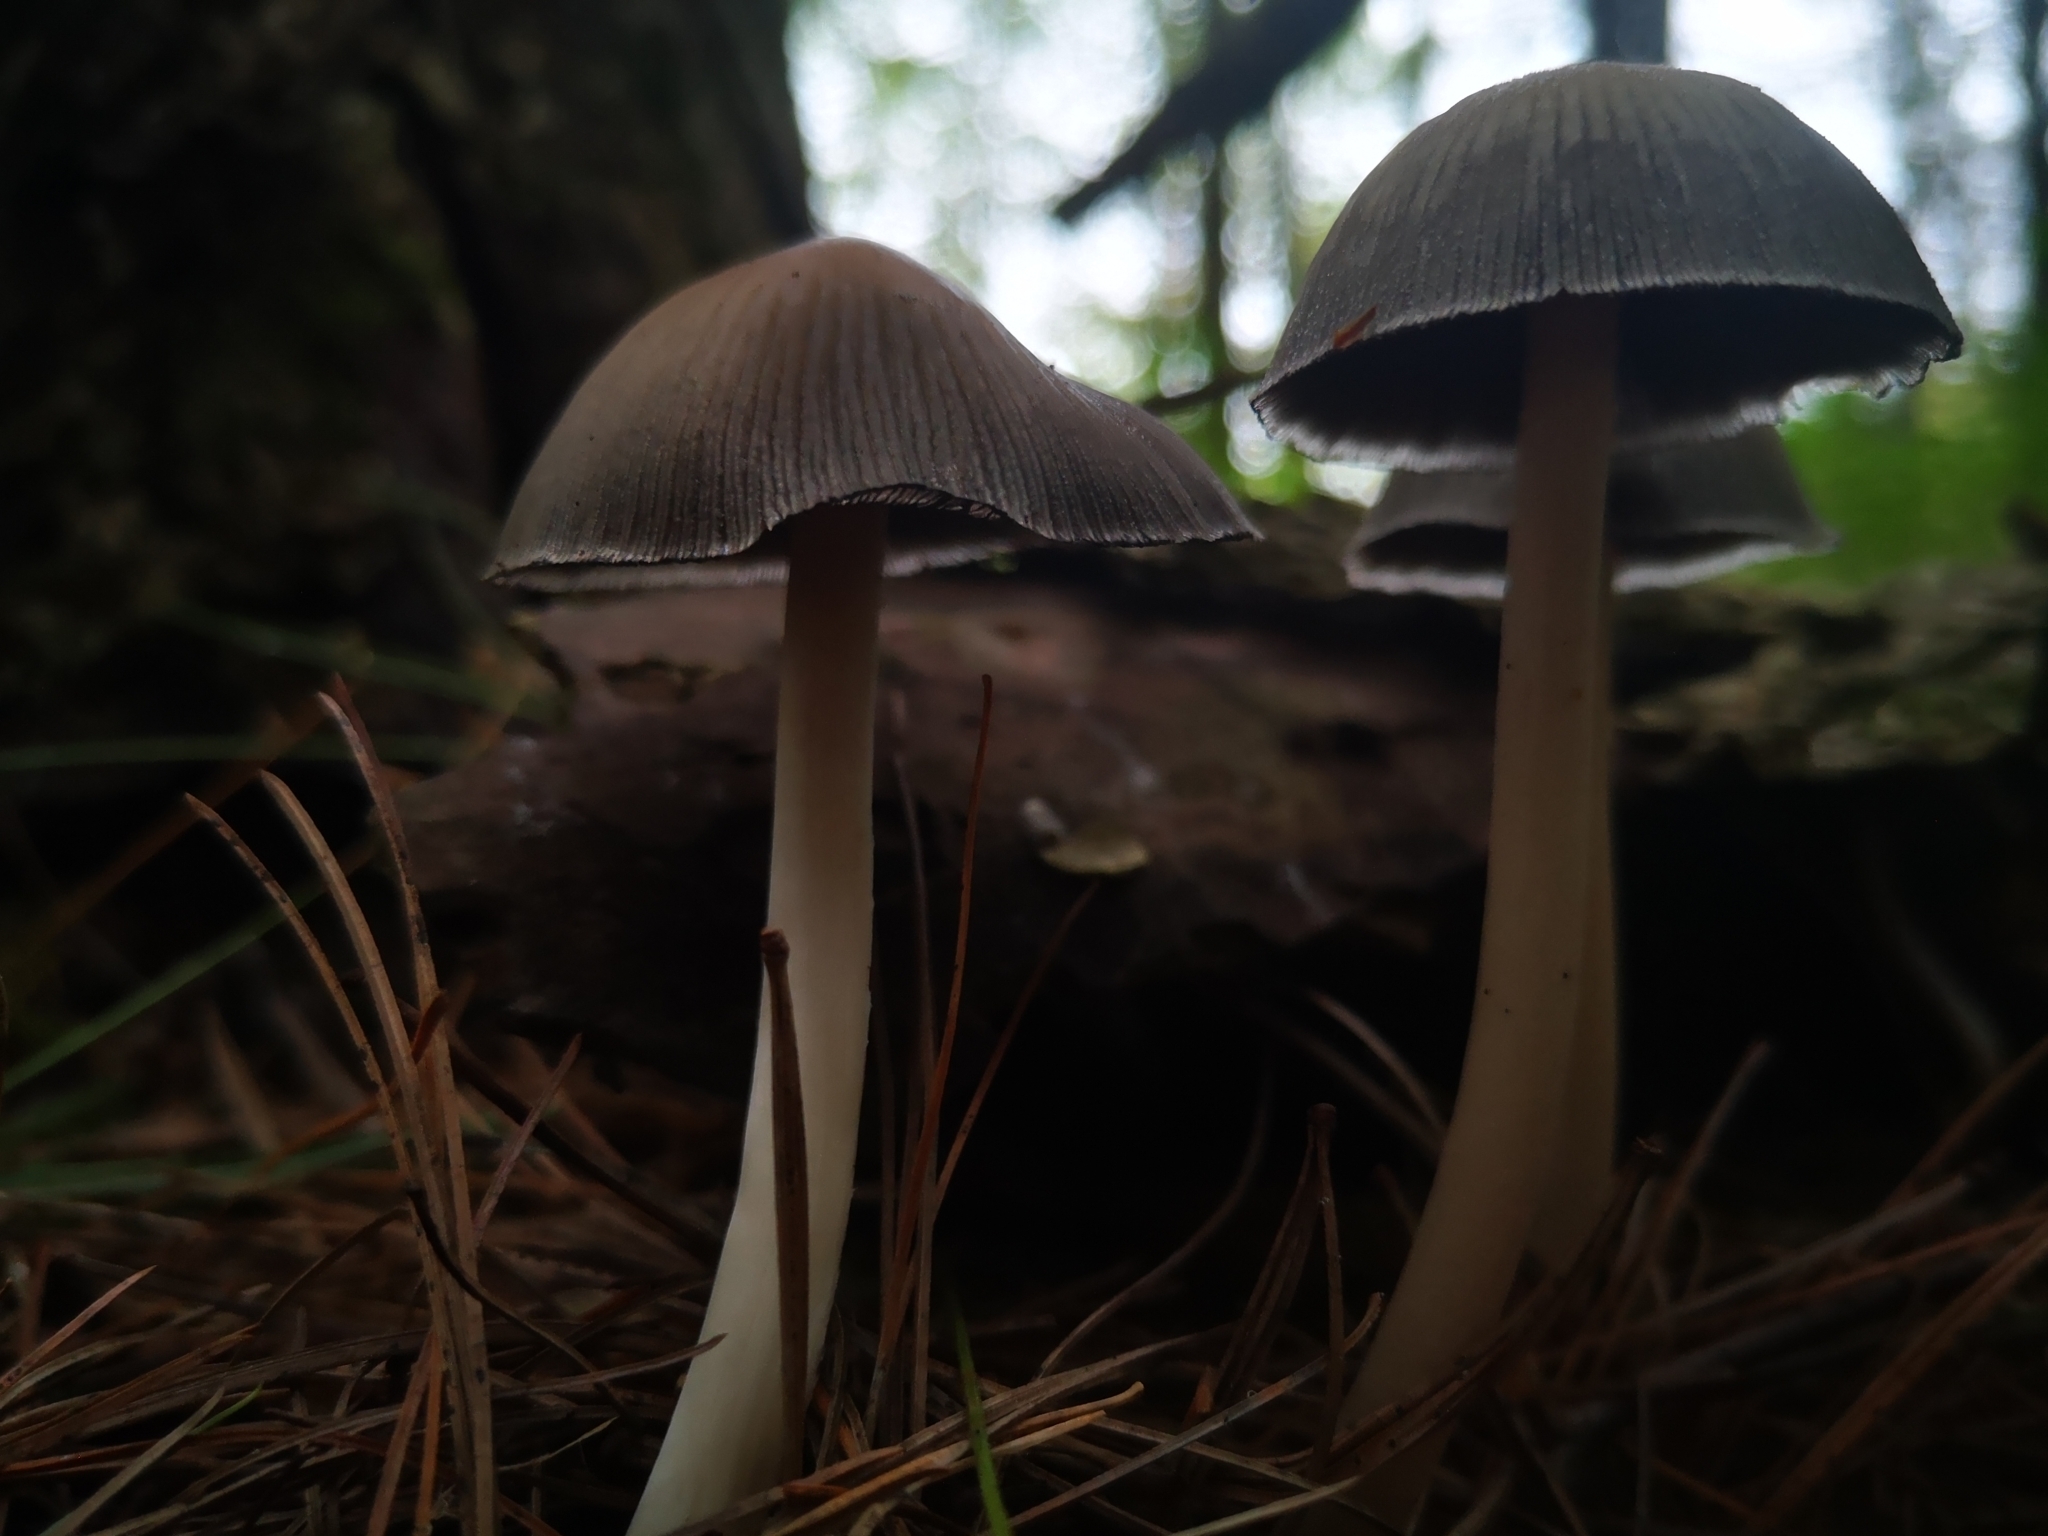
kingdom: Fungi
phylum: Basidiomycota
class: Agaricomycetes
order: Agaricales
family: Psathyrellaceae
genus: Coprinopsis
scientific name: Coprinopsis atramentaria
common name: Common ink-cap
